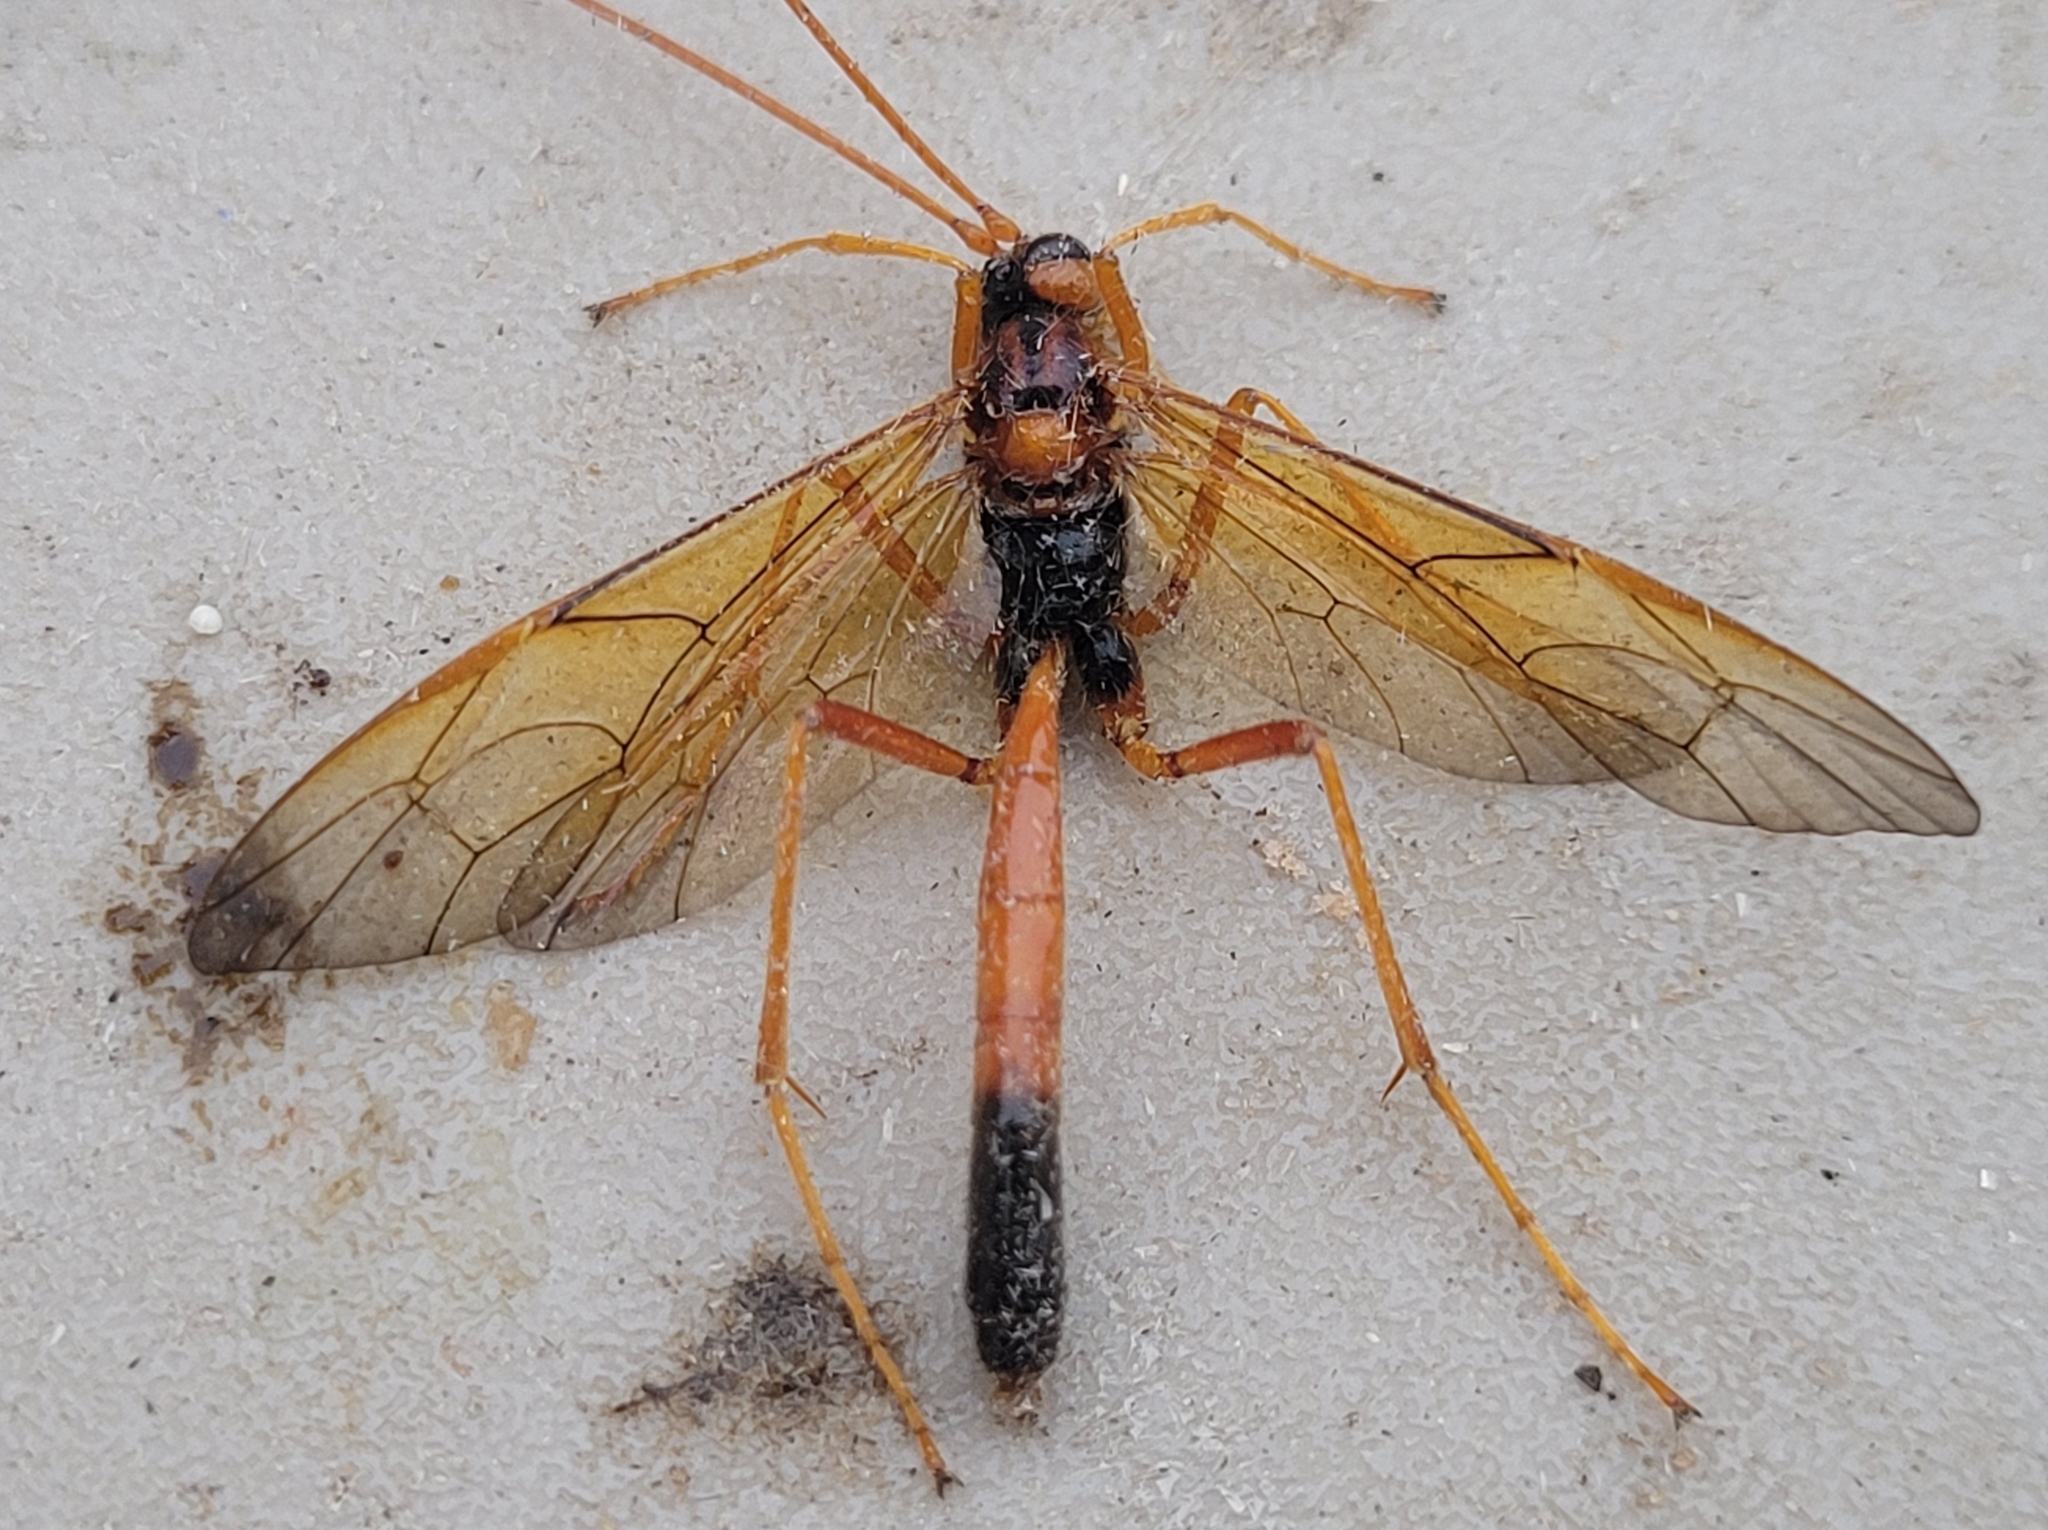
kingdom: Animalia
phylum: Arthropoda
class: Insecta
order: Hymenoptera
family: Ichneumonidae
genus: Opheltes
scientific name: Opheltes glaucopterus
